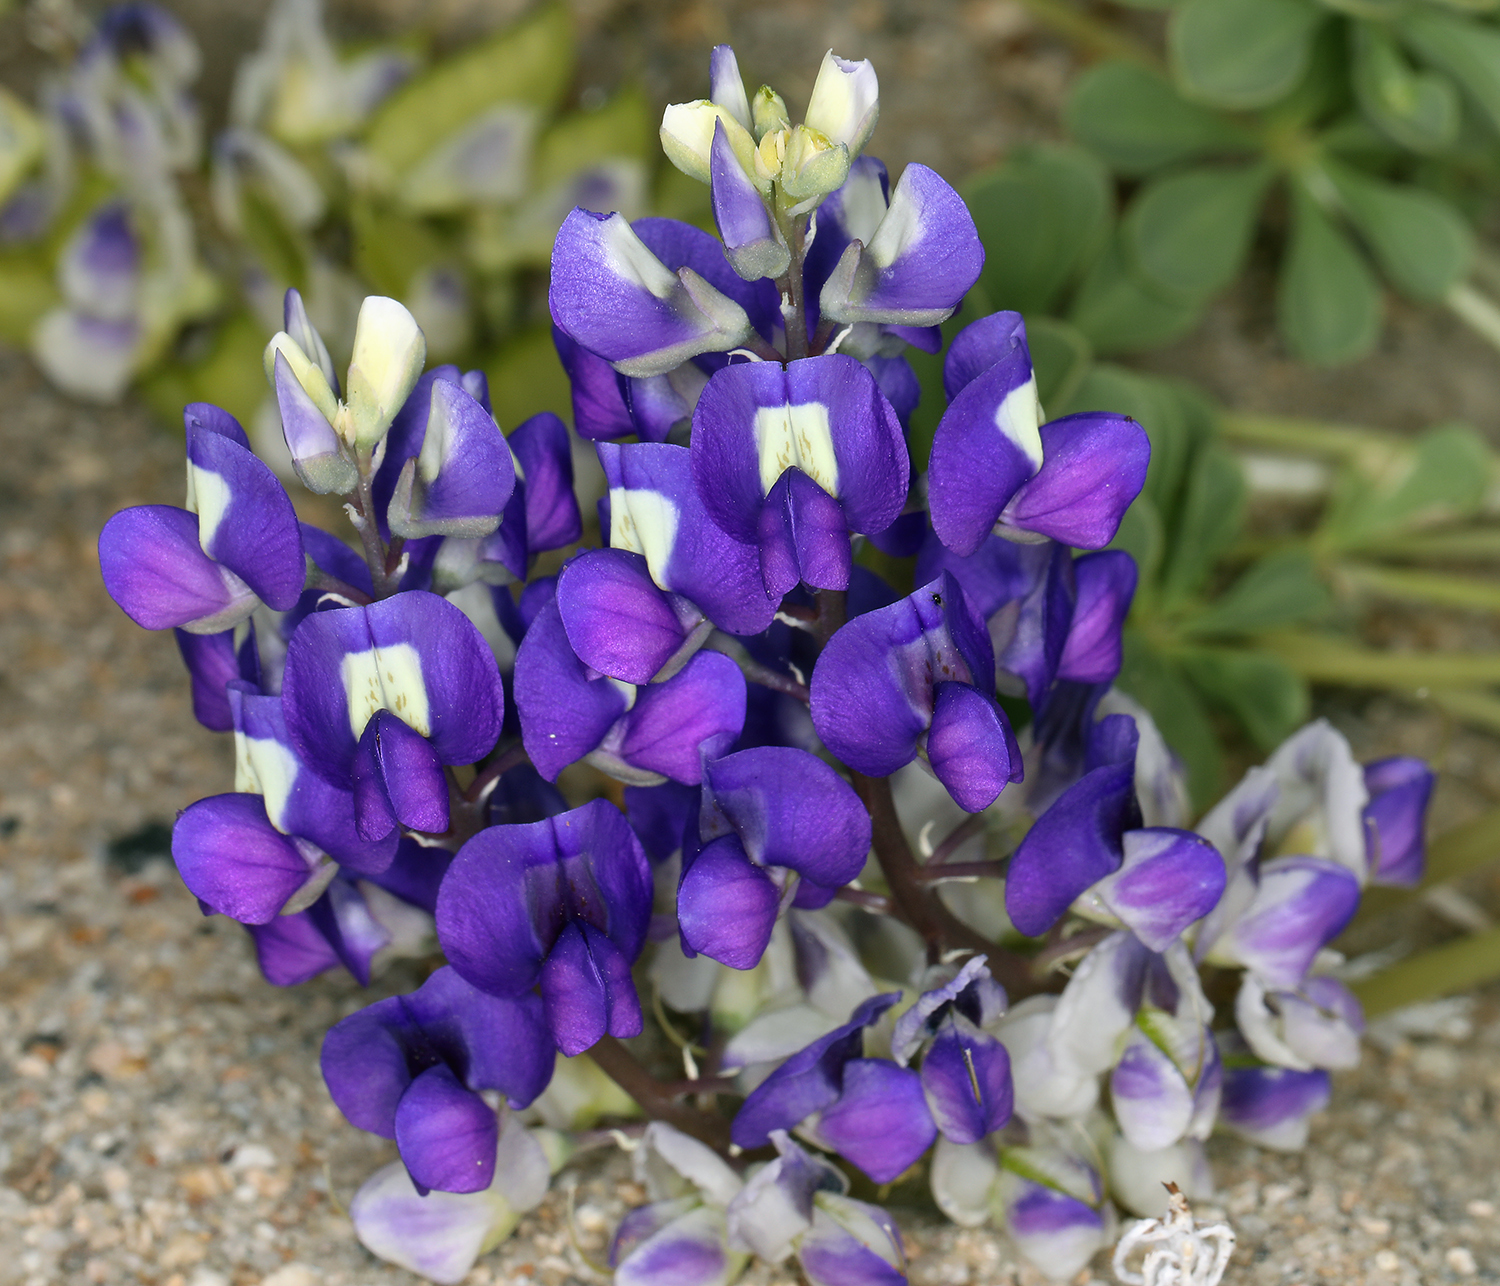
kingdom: Plantae
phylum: Tracheophyta
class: Magnoliopsida
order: Fabales
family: Fabaceae
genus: Lupinus
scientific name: Lupinus
